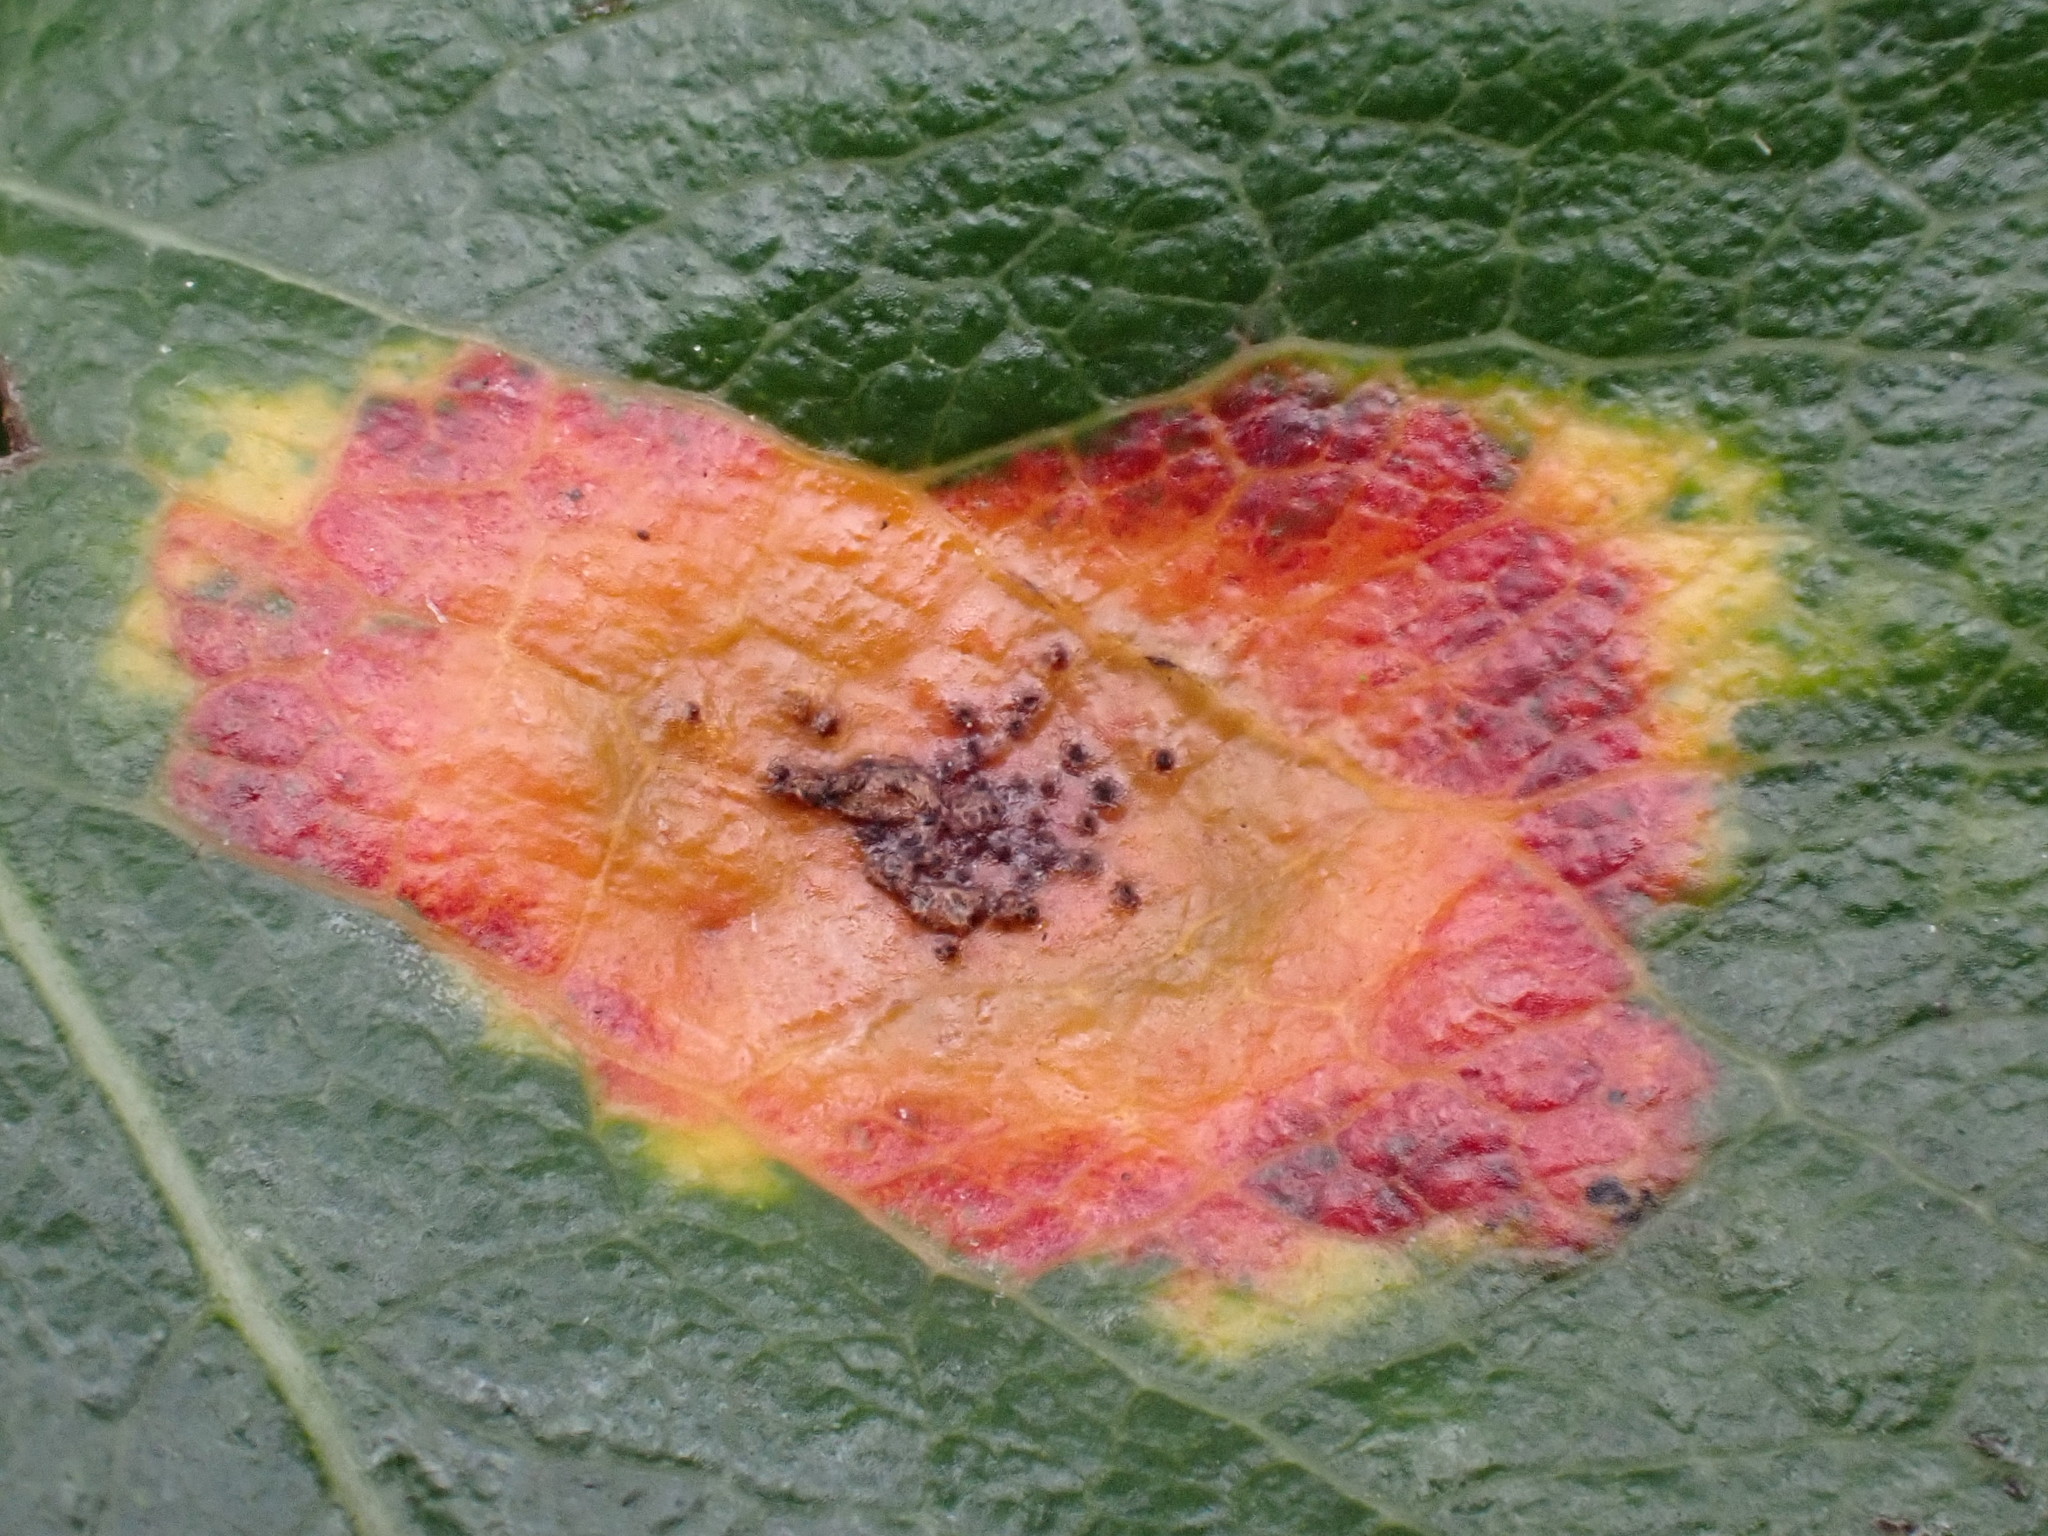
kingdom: Fungi
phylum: Basidiomycota
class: Pucciniomycetes
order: Pucciniales
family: Gymnosporangiaceae
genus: Gymnosporangium
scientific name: Gymnosporangium sabinae
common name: Pear trellis rust fungus
